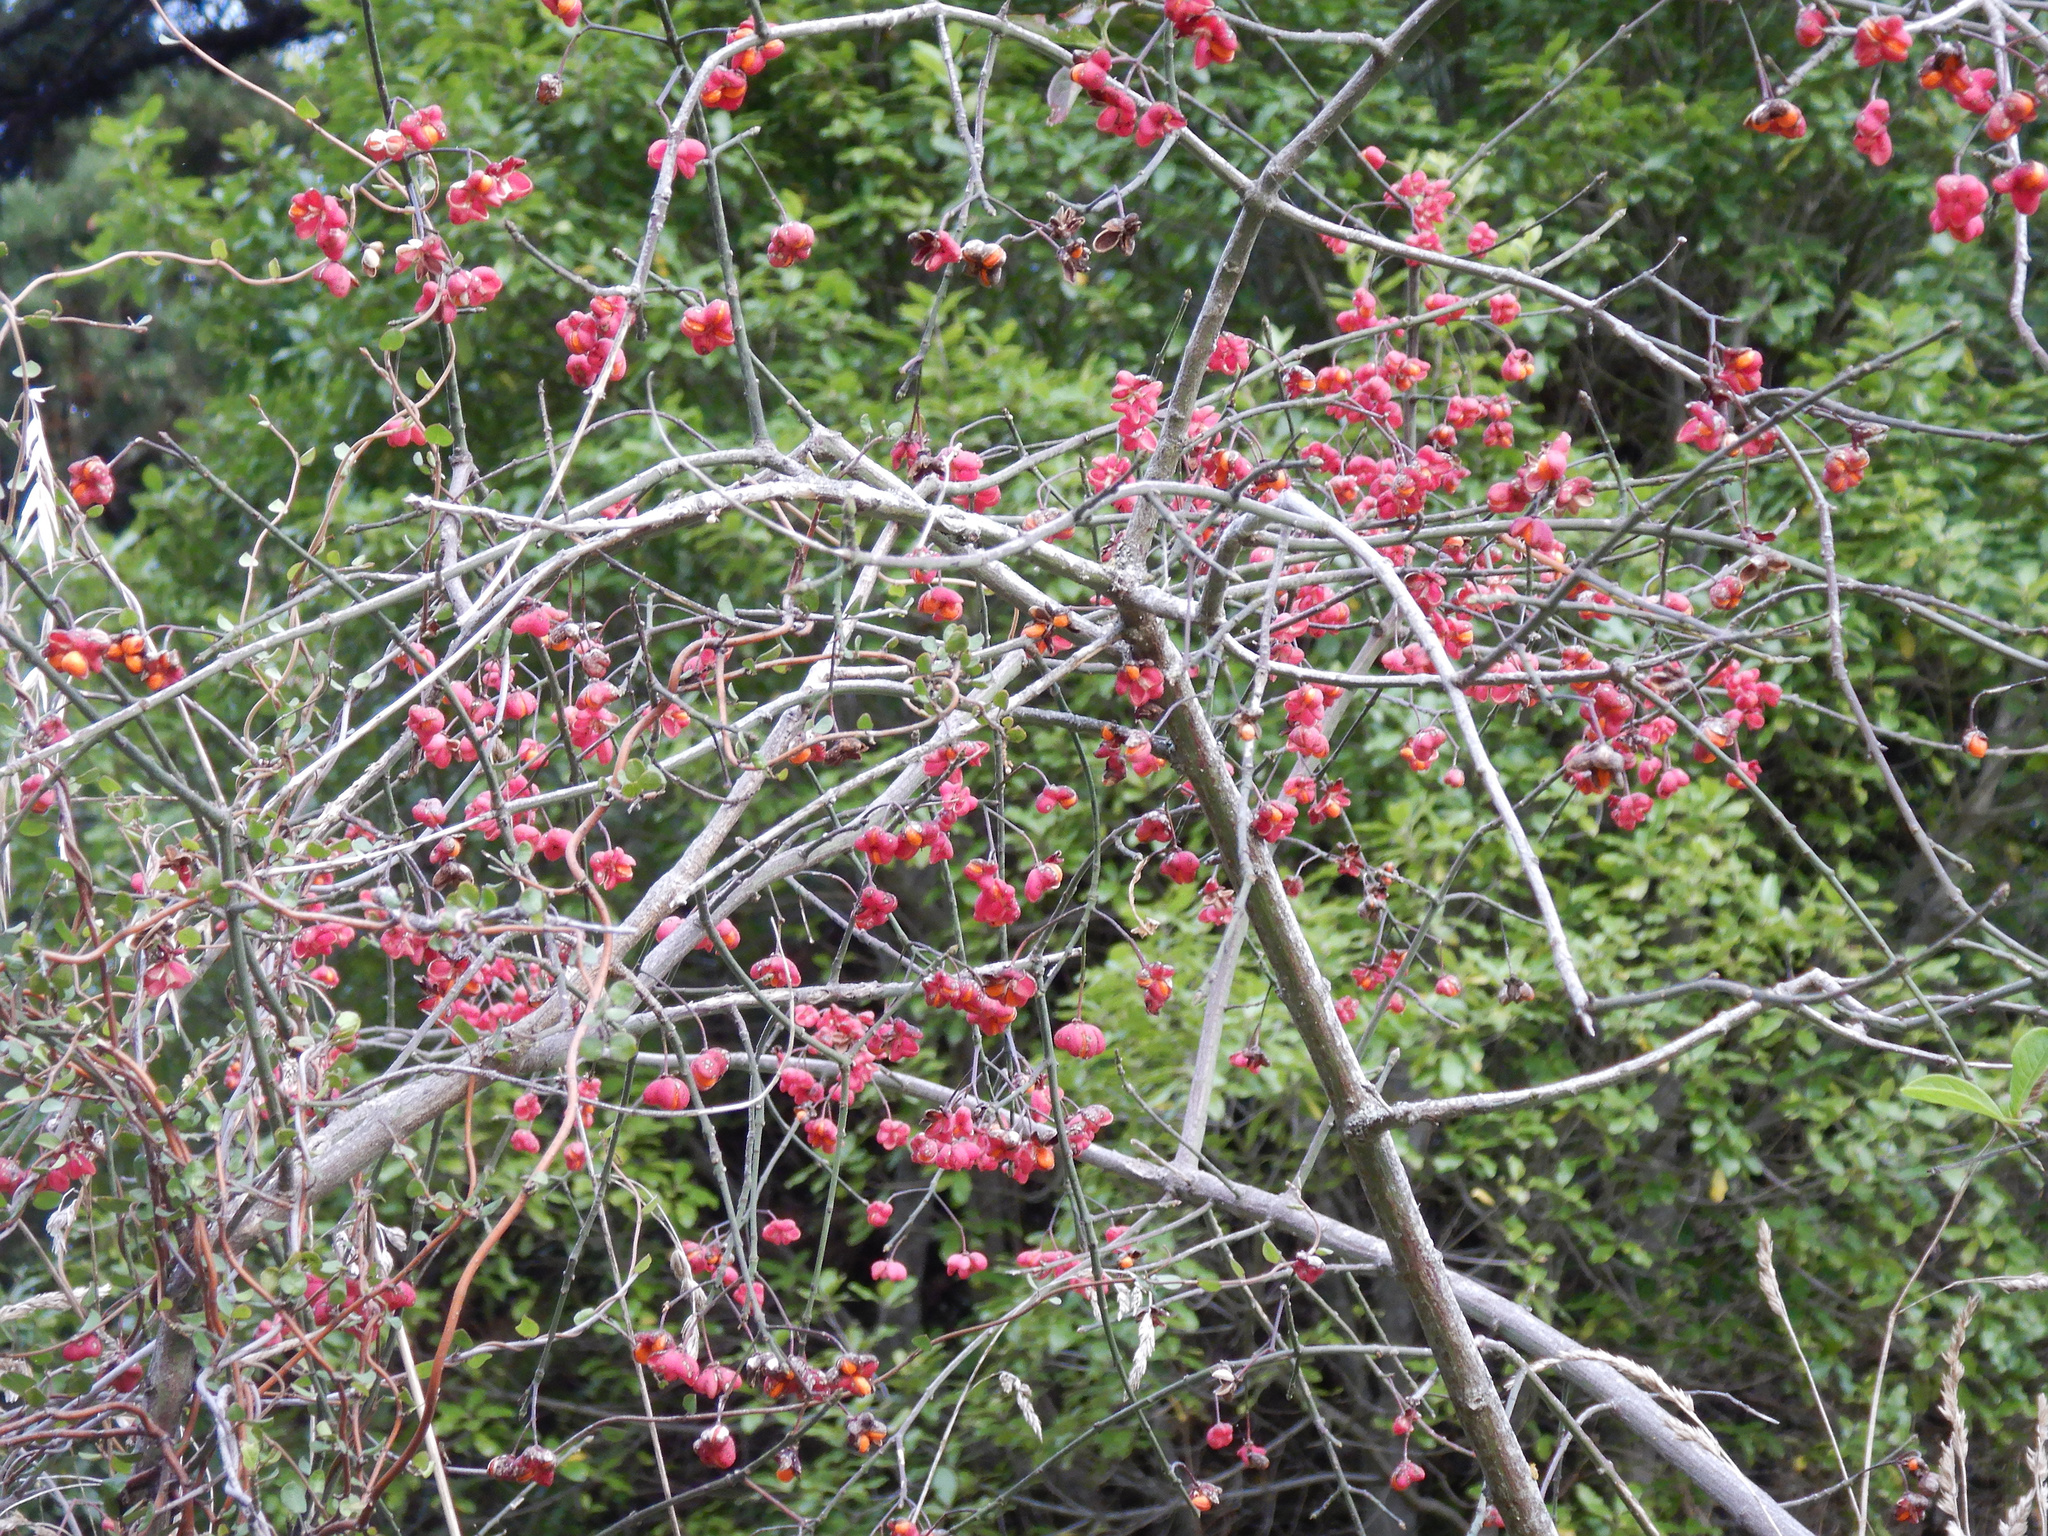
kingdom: Plantae
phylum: Tracheophyta
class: Magnoliopsida
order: Celastrales
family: Celastraceae
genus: Euonymus
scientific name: Euonymus europaeus
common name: Spindle
